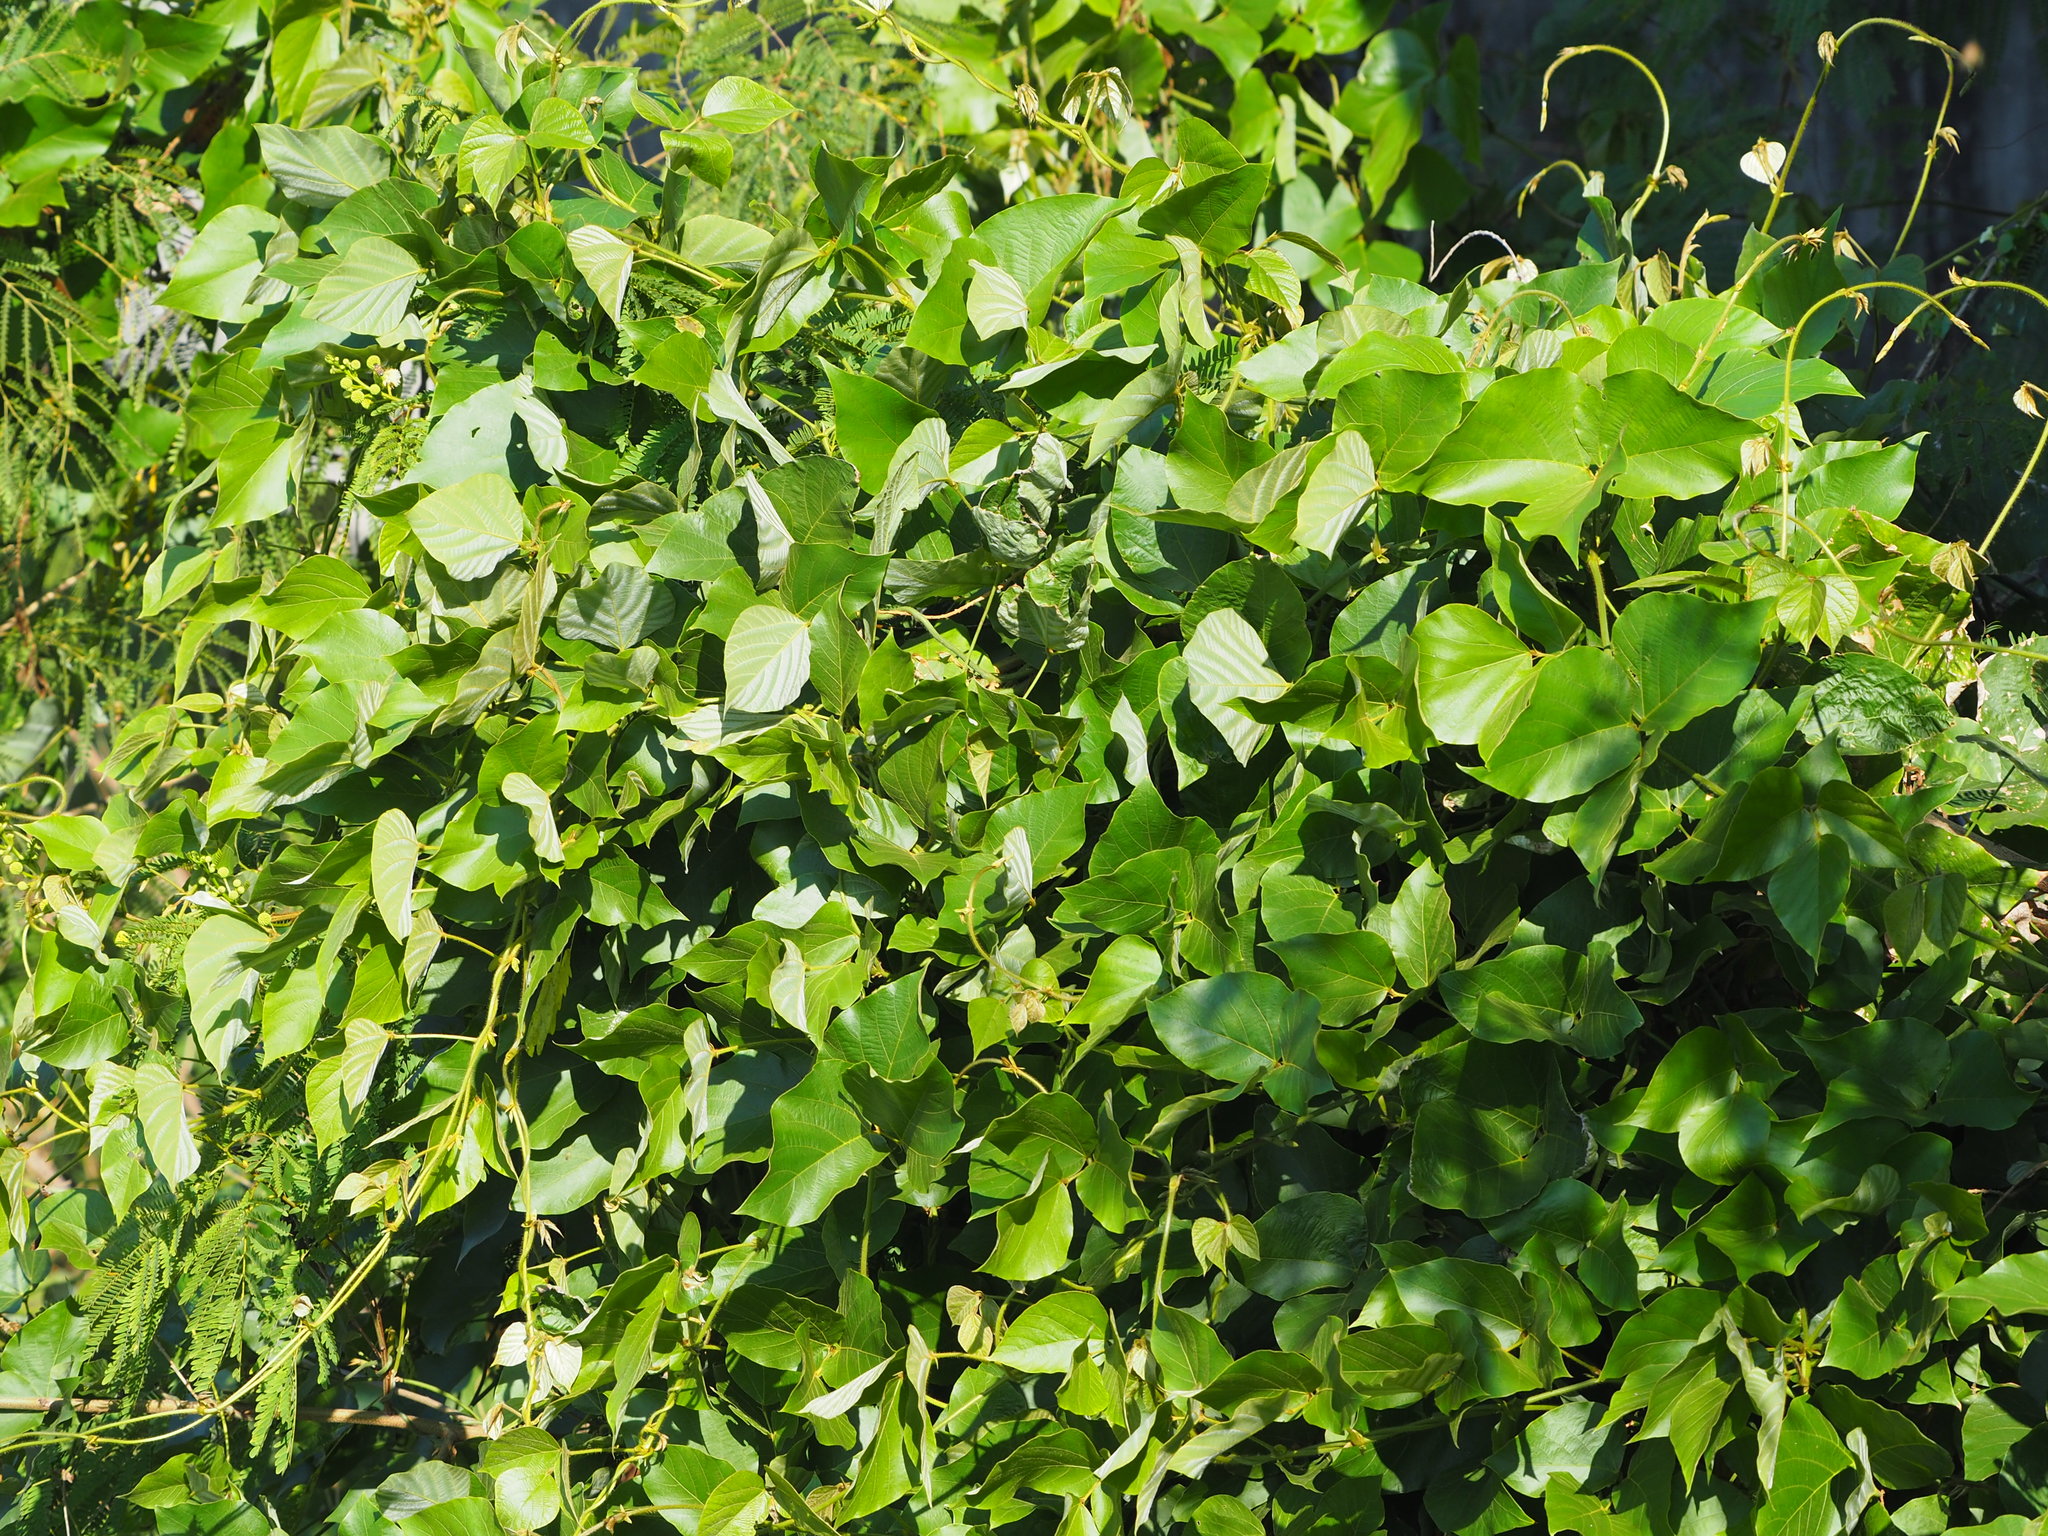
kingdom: Plantae
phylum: Tracheophyta
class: Magnoliopsida
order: Fabales
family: Fabaceae
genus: Pueraria
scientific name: Pueraria montana
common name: Kudzu
